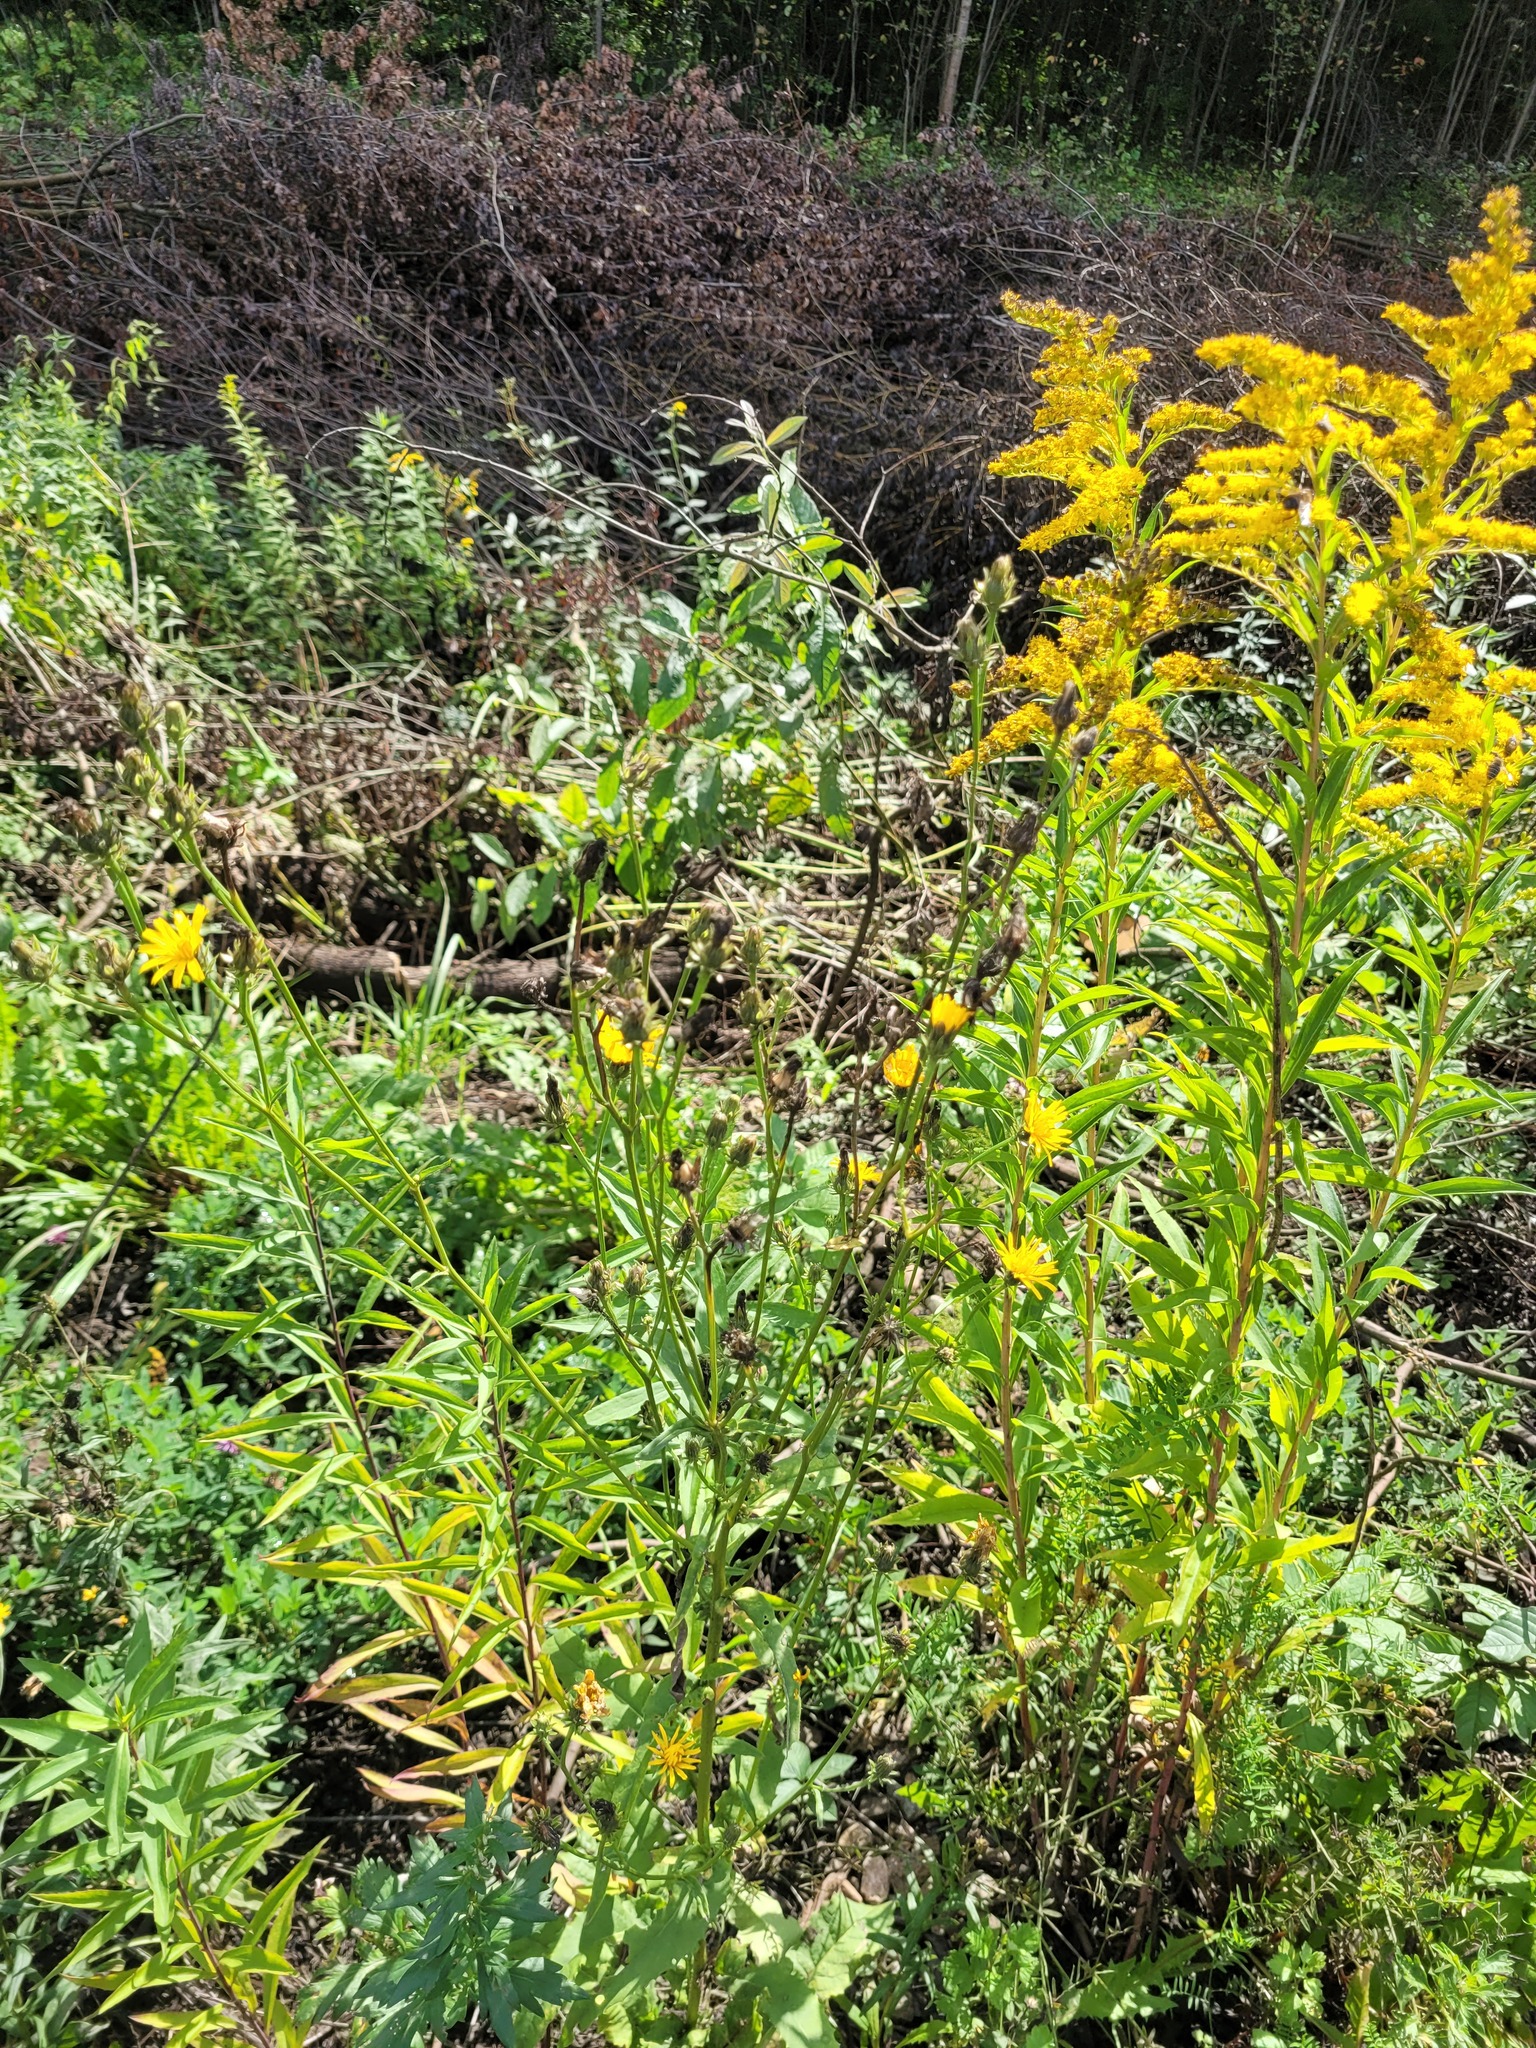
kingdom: Plantae
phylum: Tracheophyta
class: Magnoliopsida
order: Asterales
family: Asteraceae
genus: Picris
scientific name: Picris hieracioides
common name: Hawkweed oxtongue
